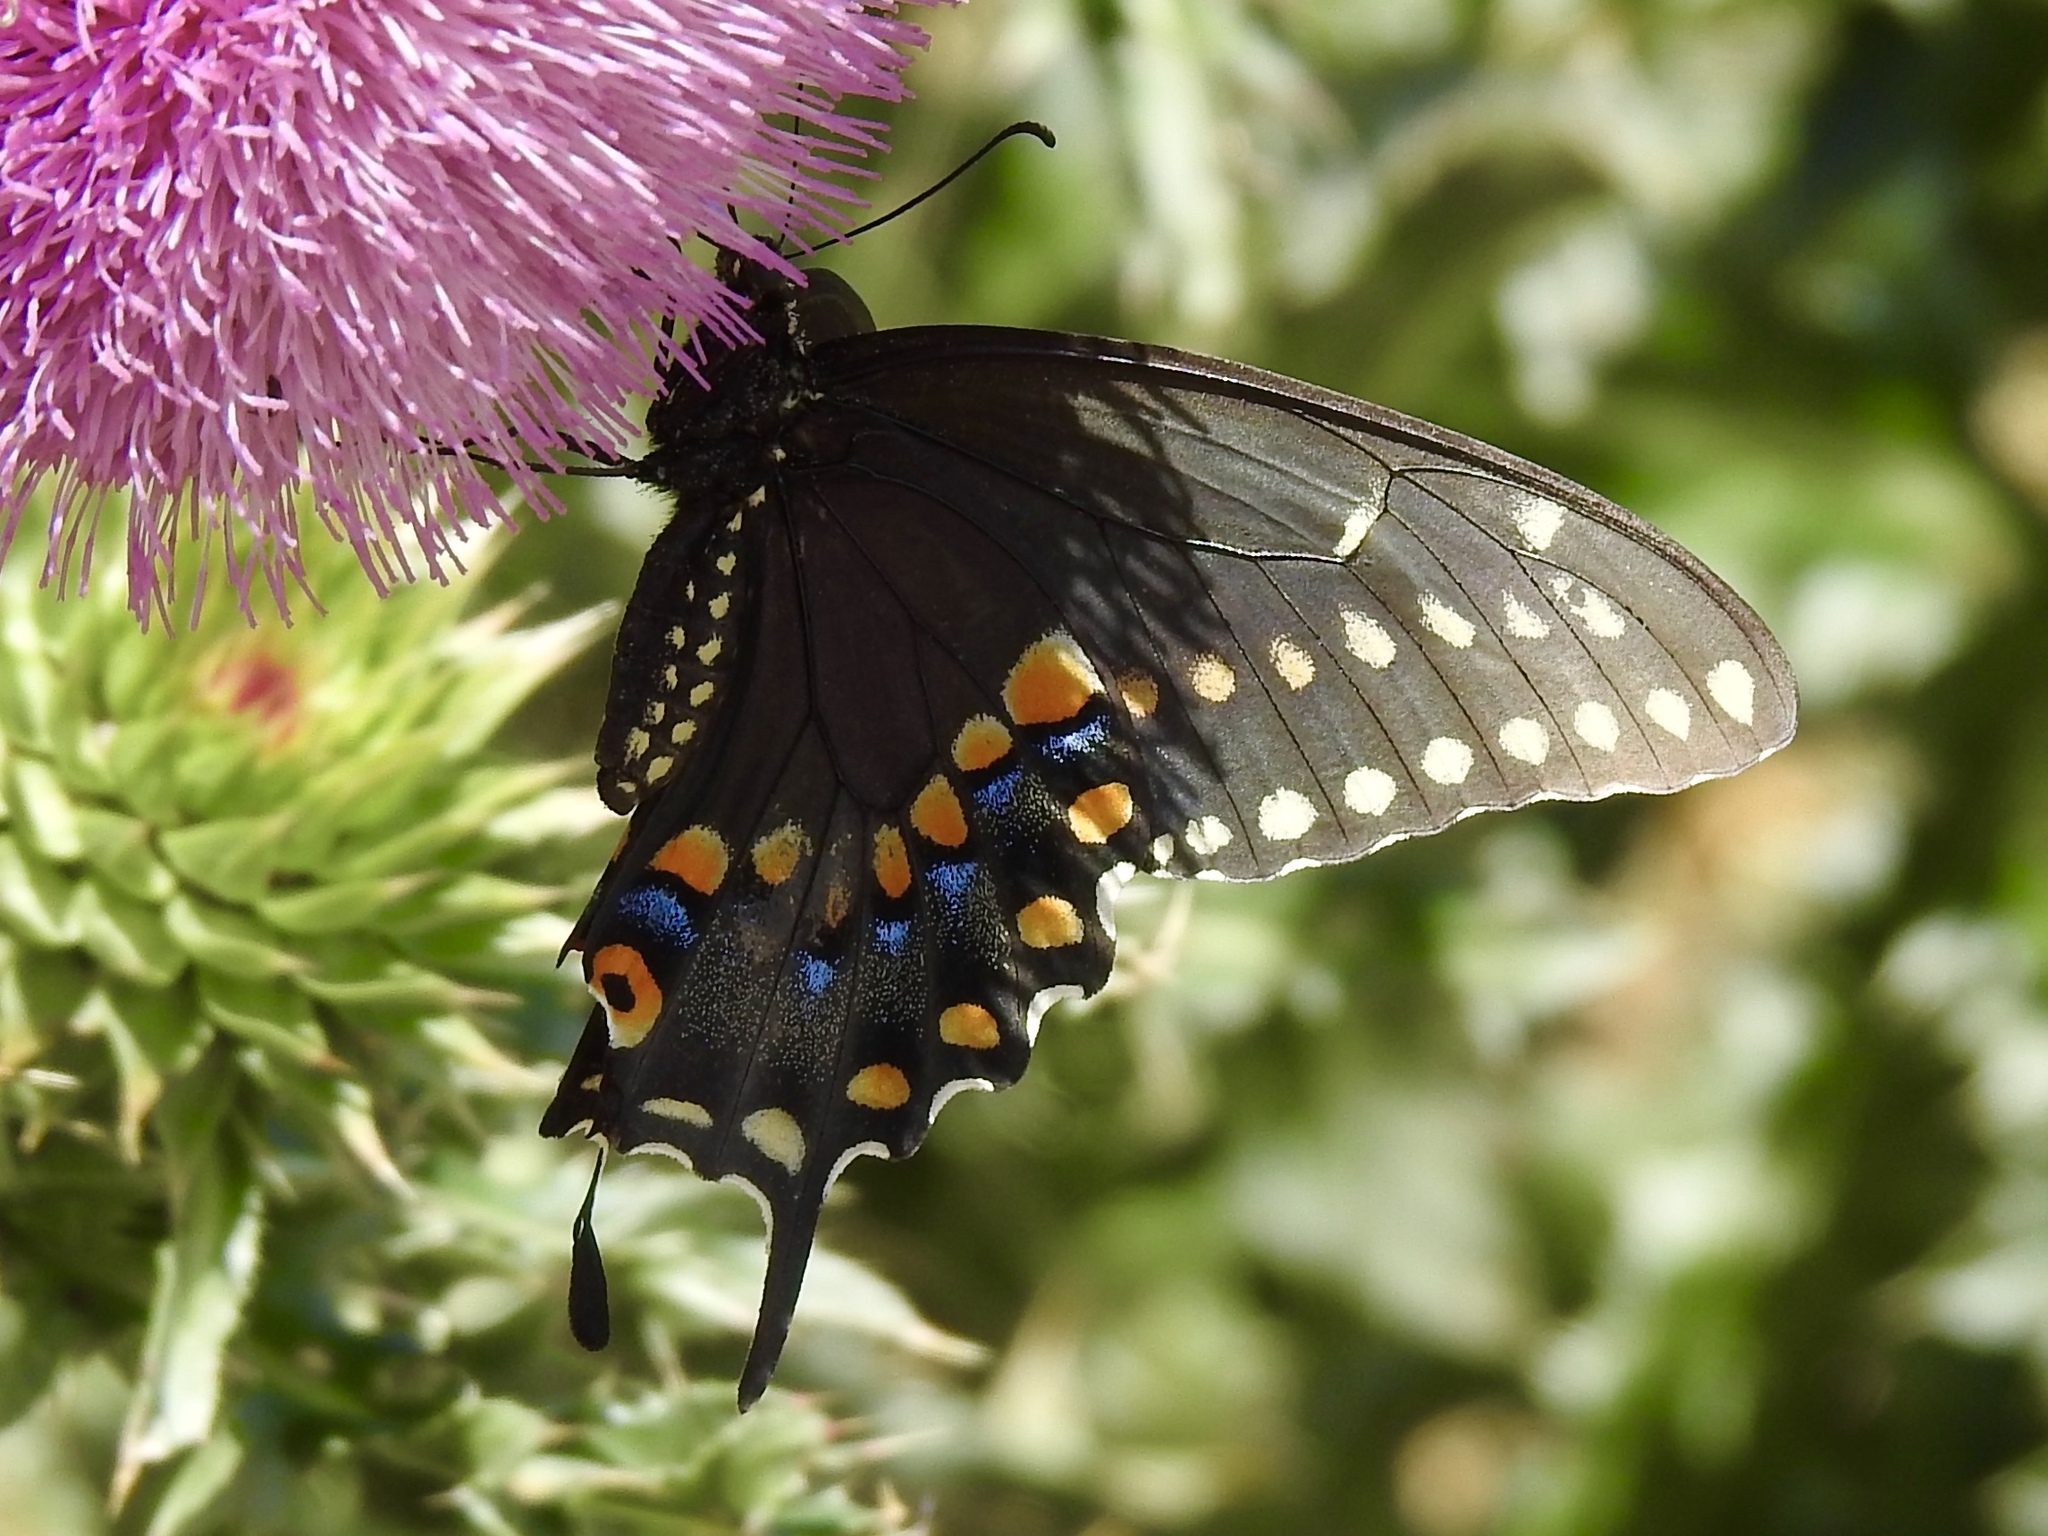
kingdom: Animalia
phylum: Arthropoda
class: Insecta
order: Lepidoptera
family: Papilionidae
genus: Papilio
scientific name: Papilio polyxenes
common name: Black swallowtail
